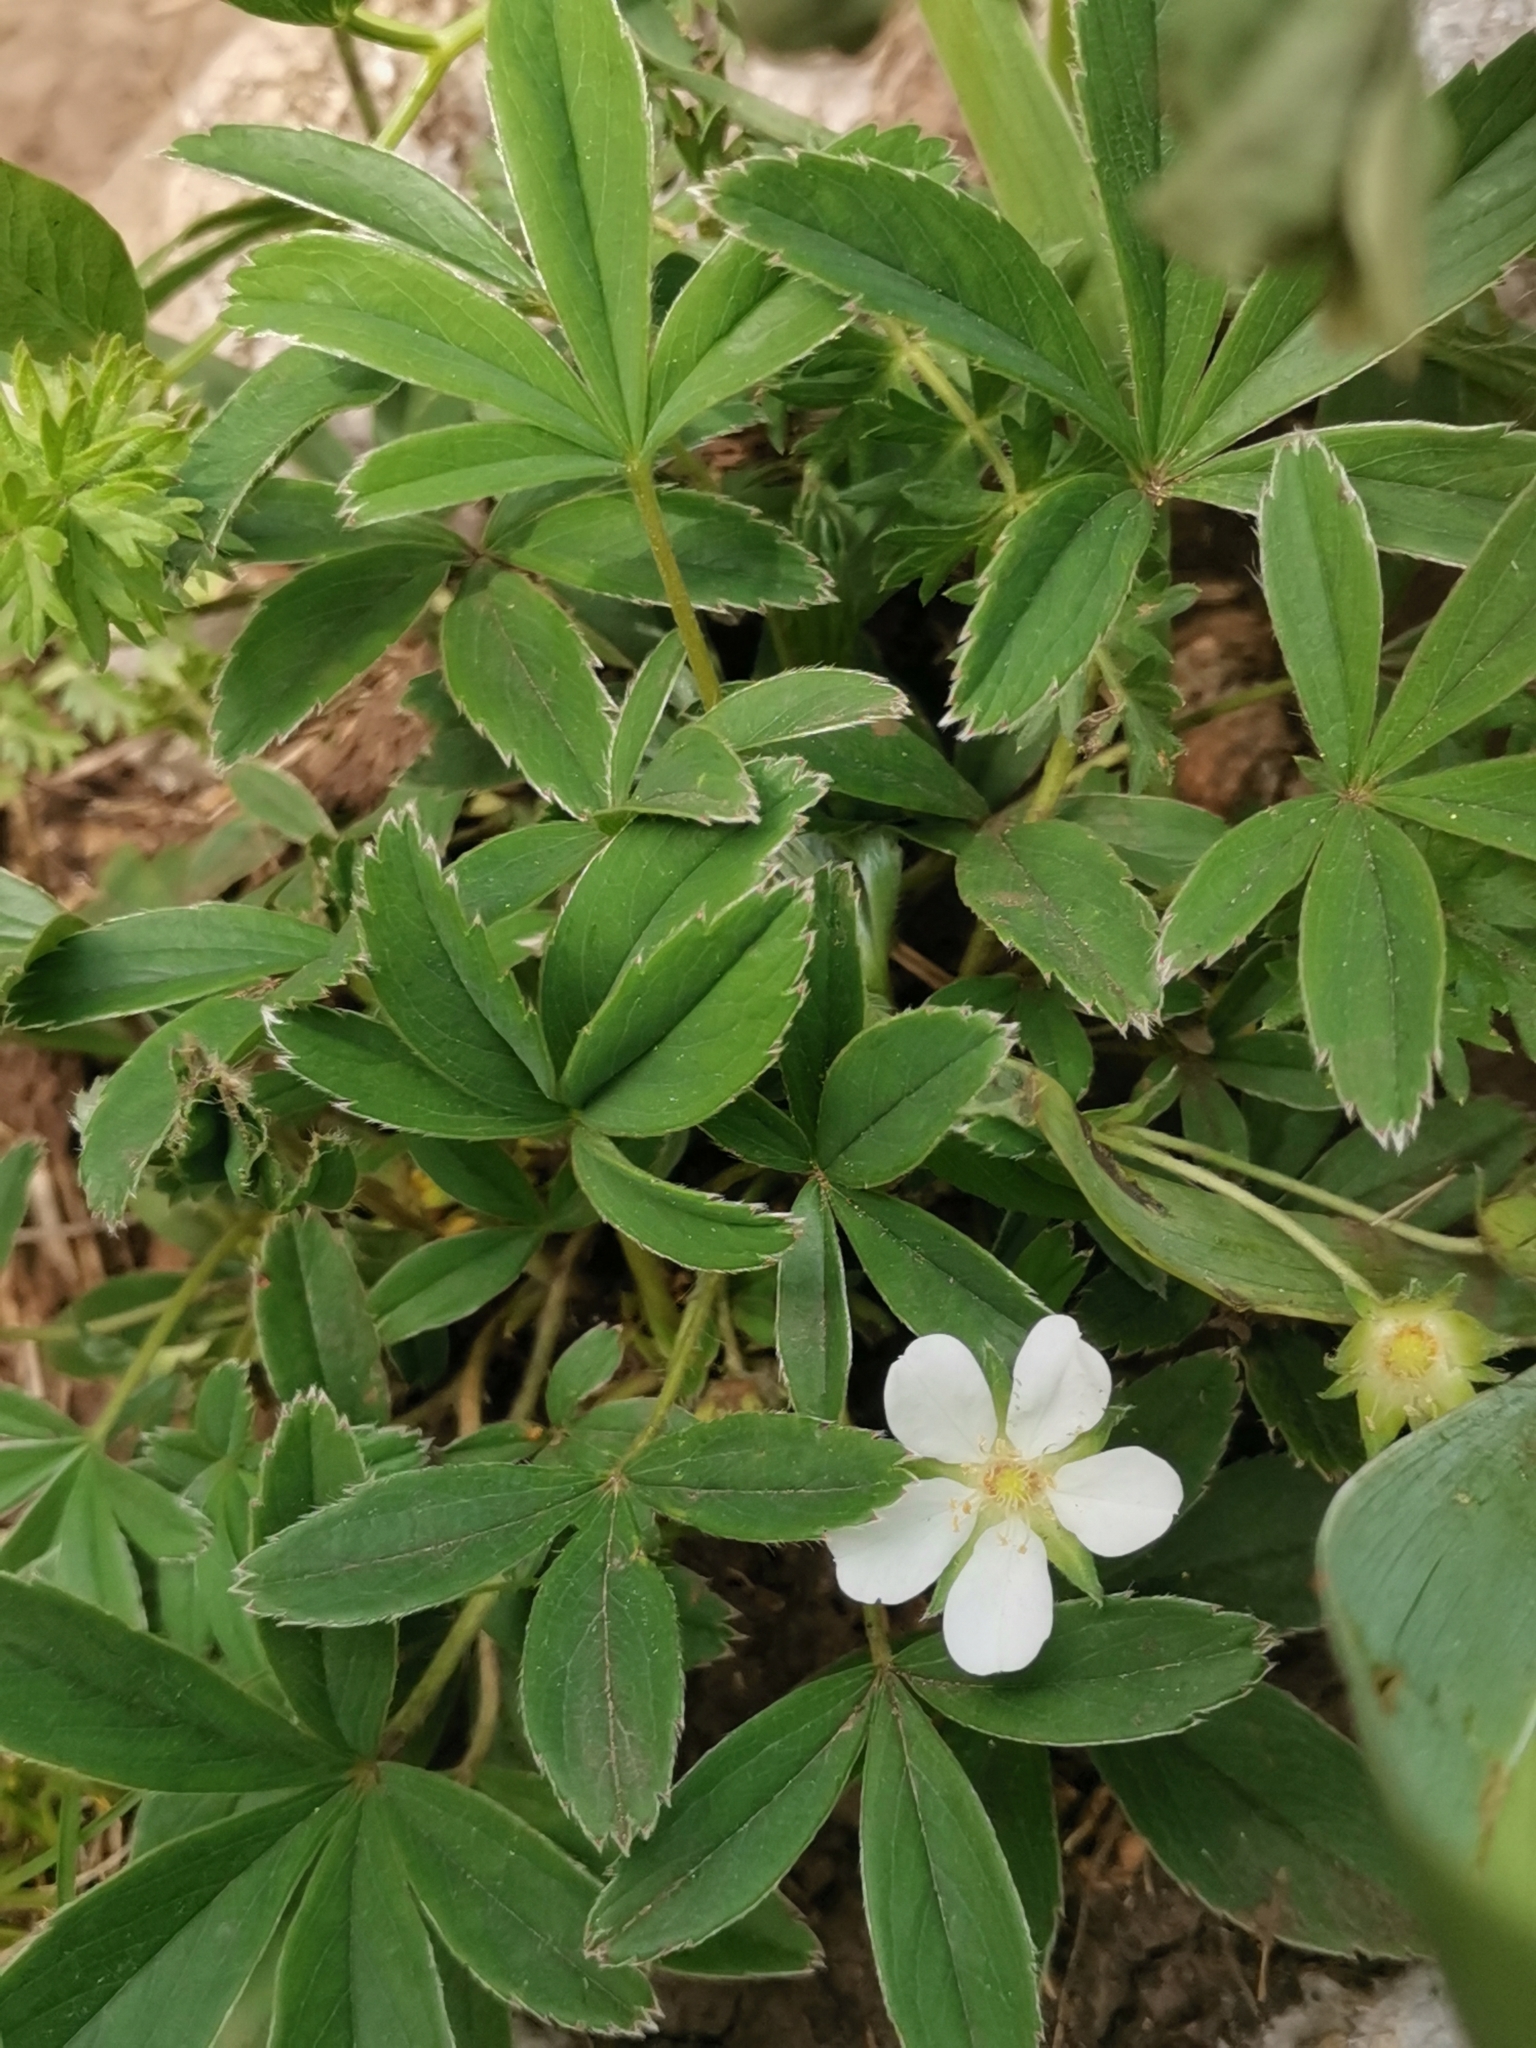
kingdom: Plantae
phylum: Tracheophyta
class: Magnoliopsida
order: Rosales
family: Rosaceae
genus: Potentilla
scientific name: Potentilla alba
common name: White cinquefoil
